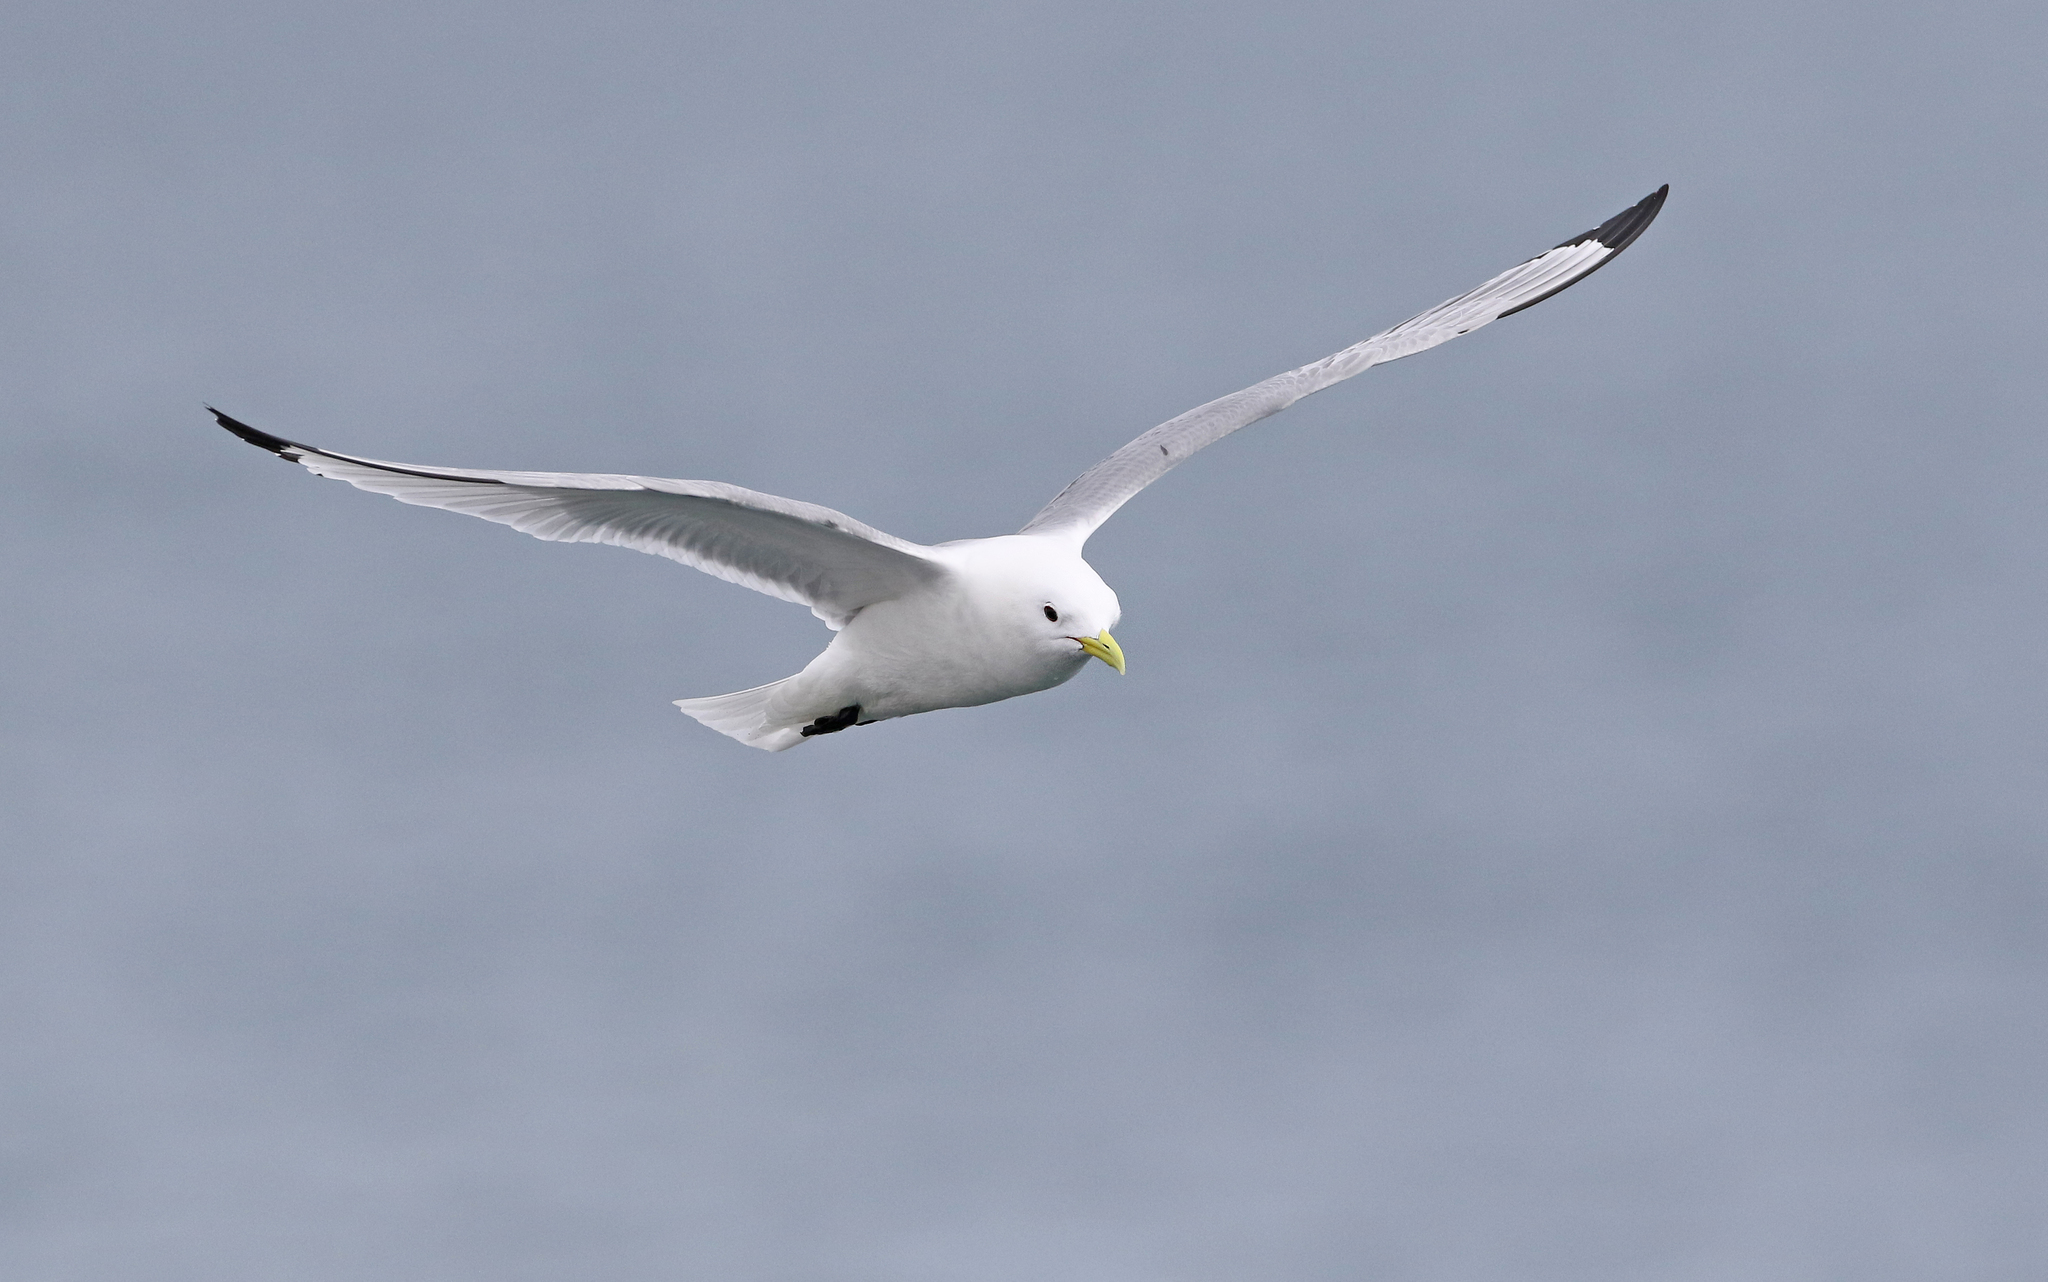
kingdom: Animalia
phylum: Chordata
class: Aves
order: Charadriiformes
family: Laridae
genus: Rissa
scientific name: Rissa tridactyla
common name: Black-legged kittiwake
